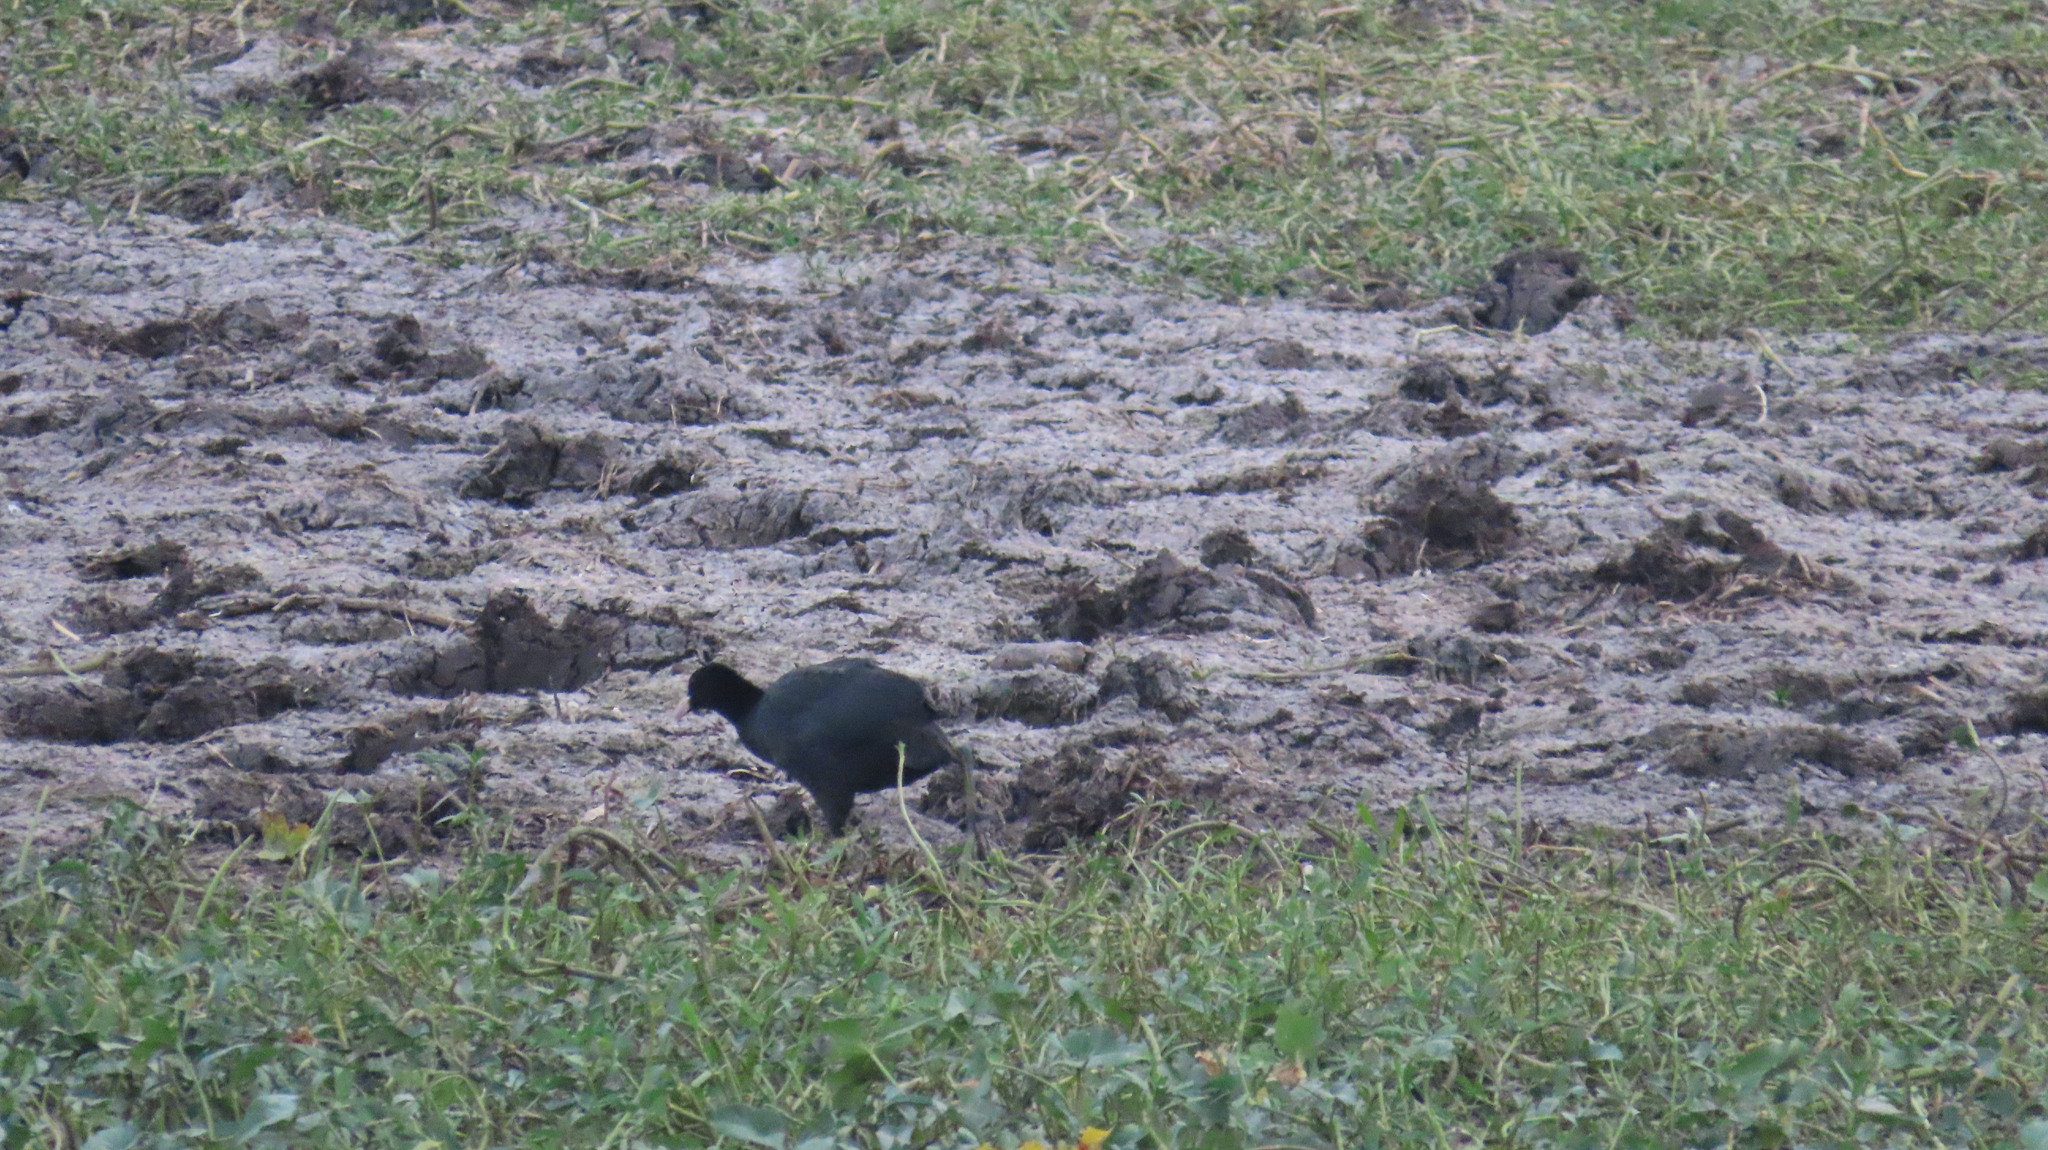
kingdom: Animalia
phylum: Chordata
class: Aves
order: Gruiformes
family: Rallidae
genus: Fulica
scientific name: Fulica atra
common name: Eurasian coot
